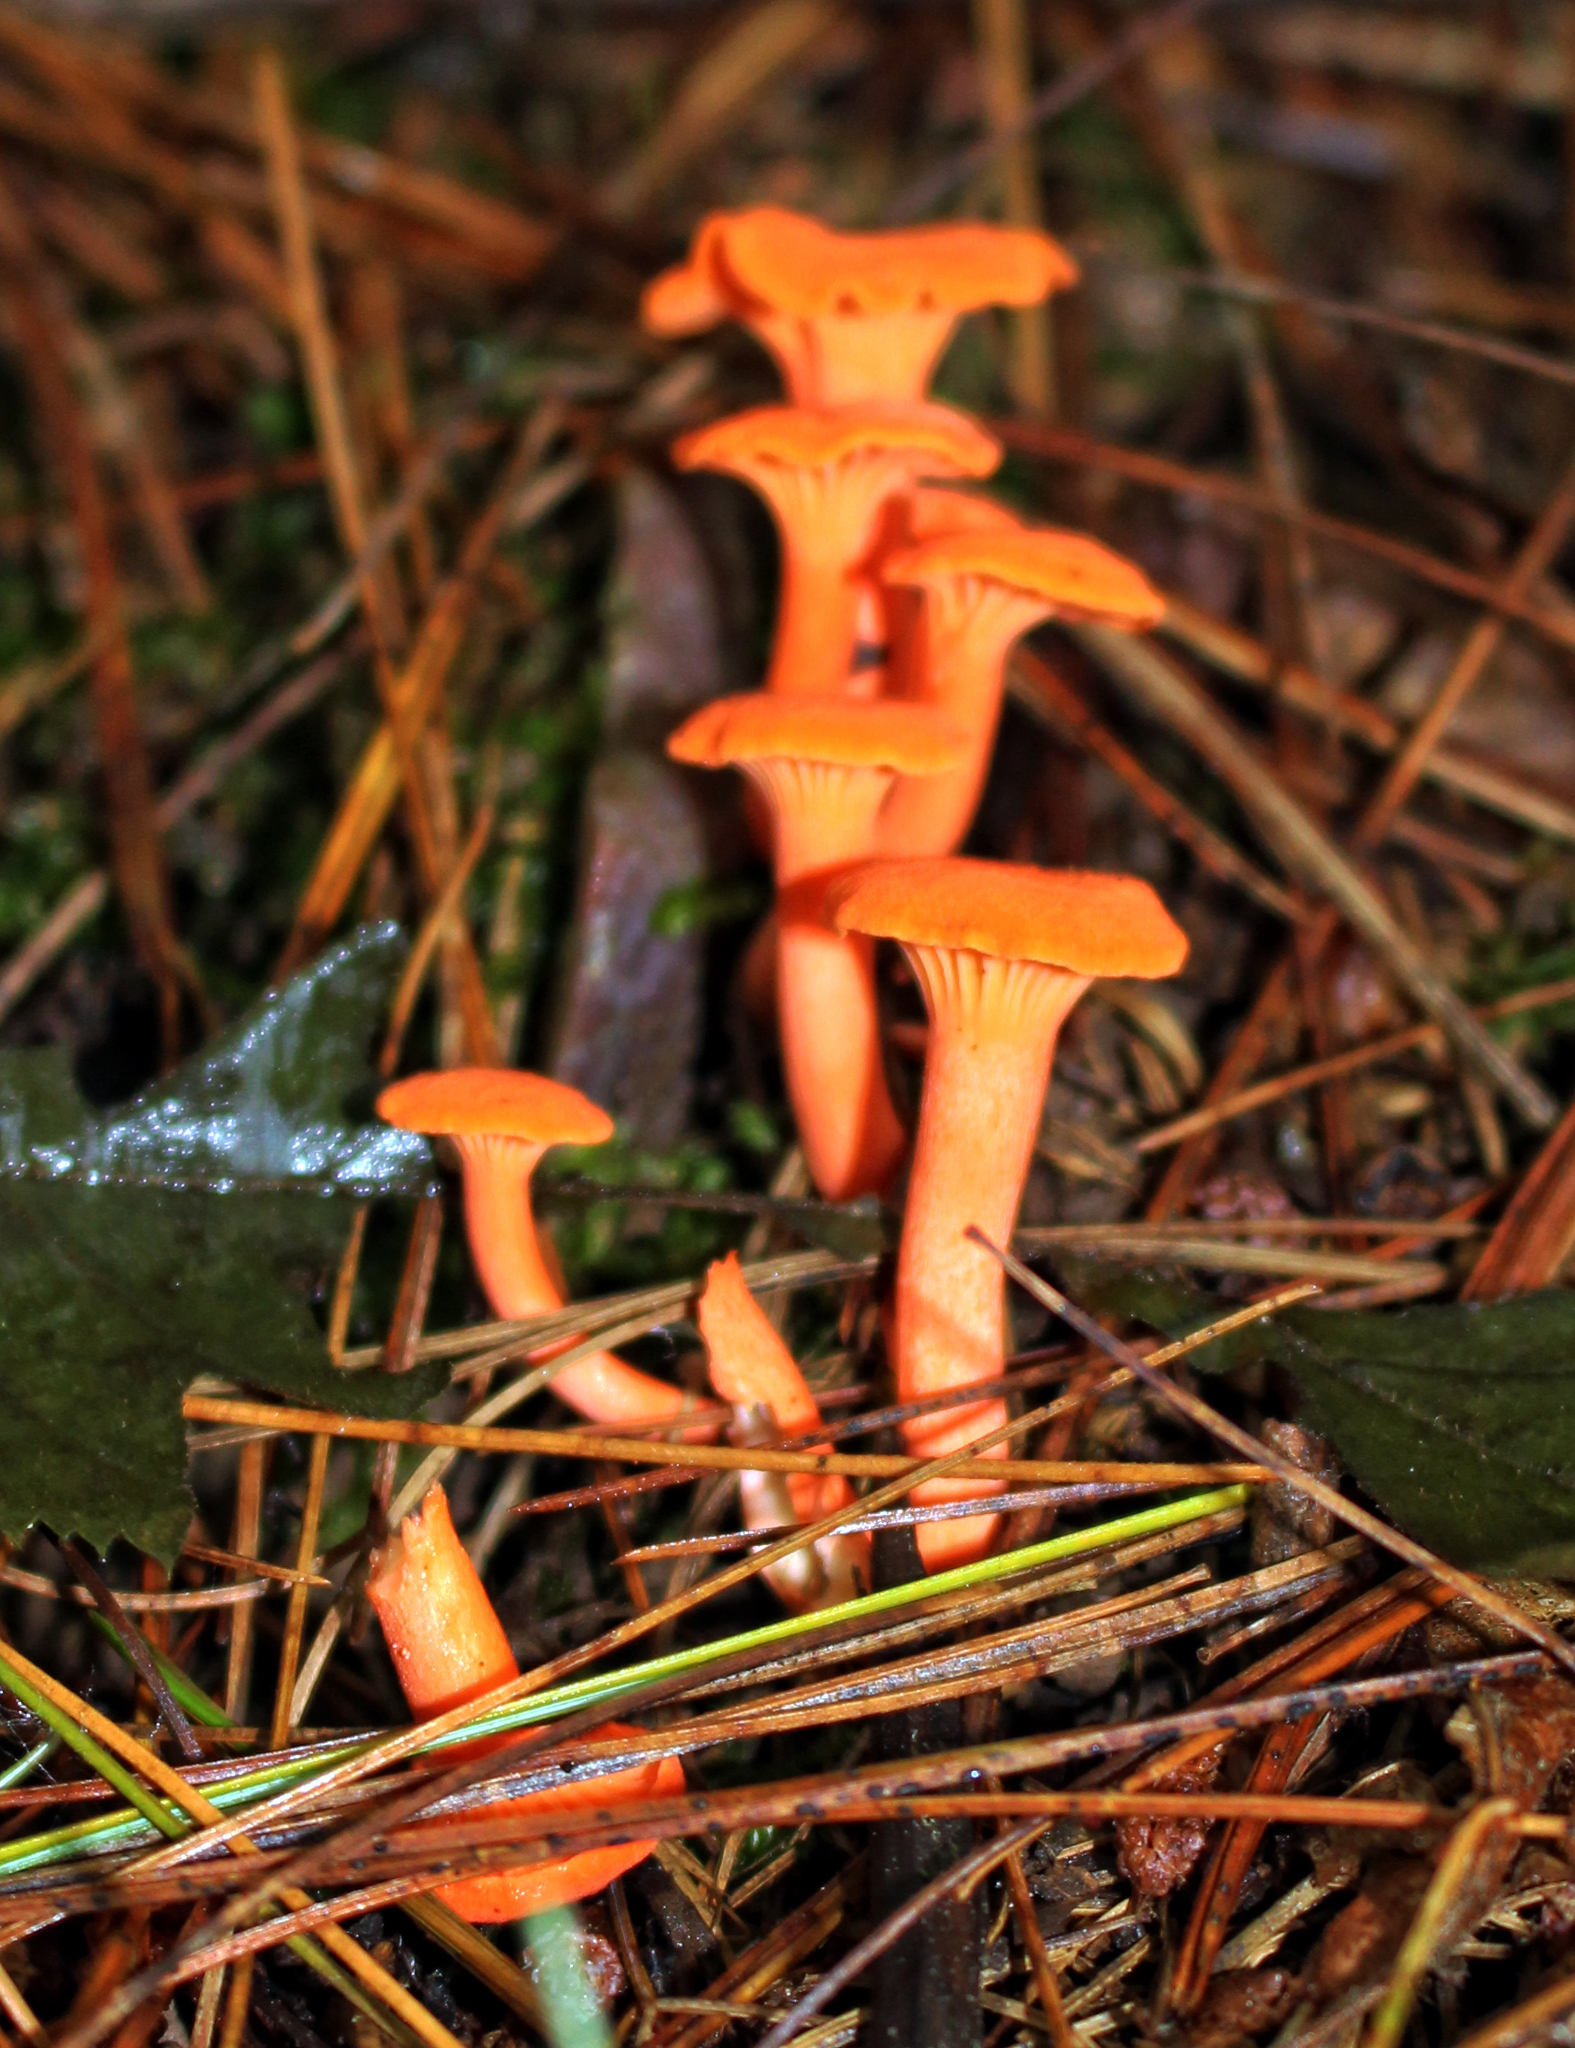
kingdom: Fungi
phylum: Basidiomycota
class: Agaricomycetes
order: Cantharellales
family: Hydnaceae
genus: Cantharellus
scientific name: Cantharellus cinnabarinus
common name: Cinnabar chanterelle
